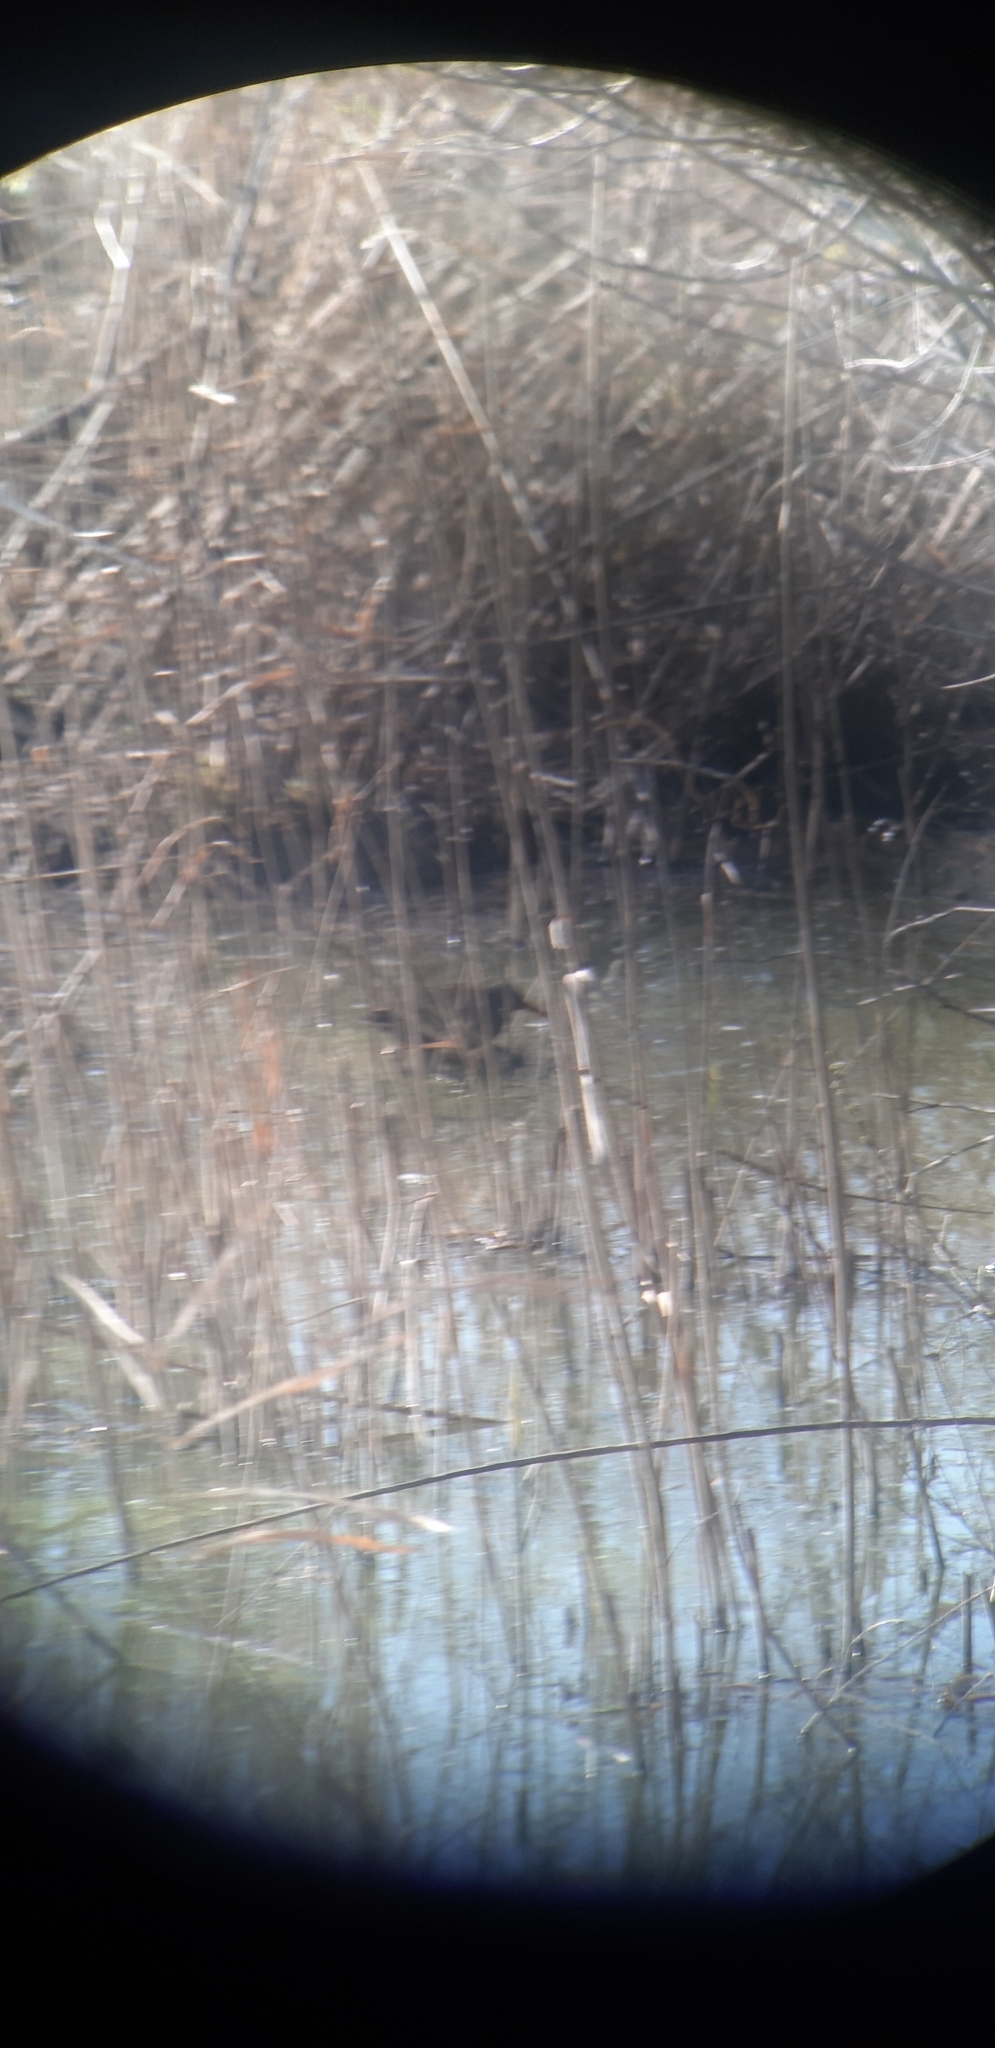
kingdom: Animalia
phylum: Chordata
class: Aves
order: Gruiformes
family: Rallidae
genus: Rallus
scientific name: Rallus aquaticus
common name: Water rail
